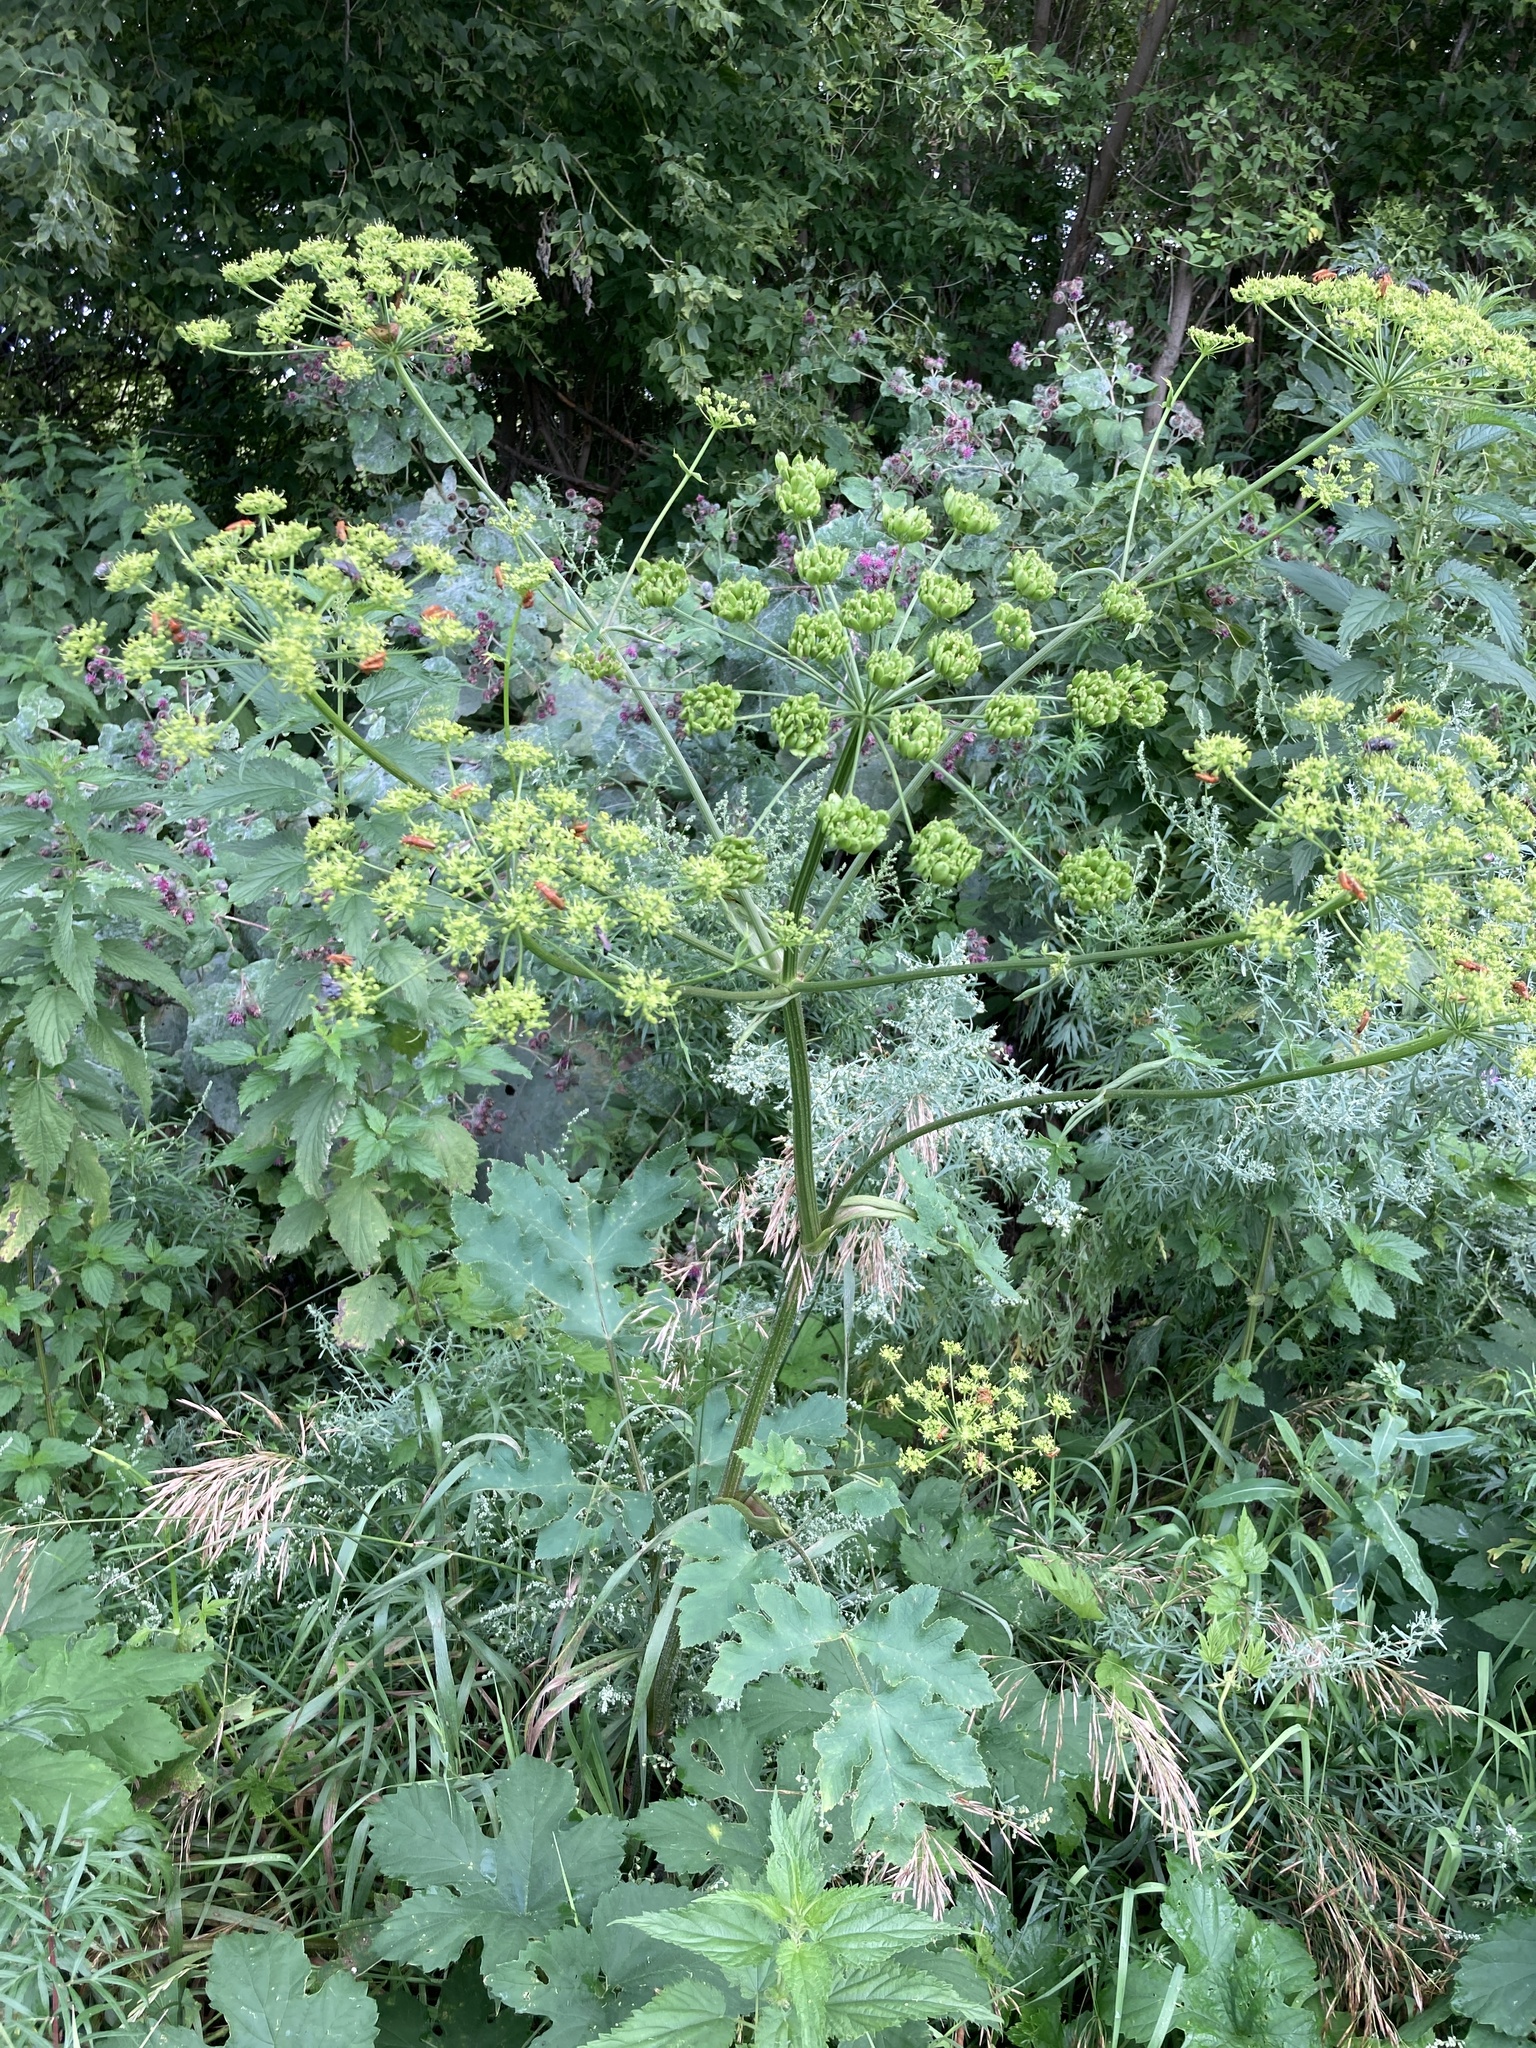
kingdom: Plantae
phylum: Tracheophyta
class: Magnoliopsida
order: Apiales
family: Apiaceae
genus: Heracleum
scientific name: Heracleum sphondylium
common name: Hogweed
